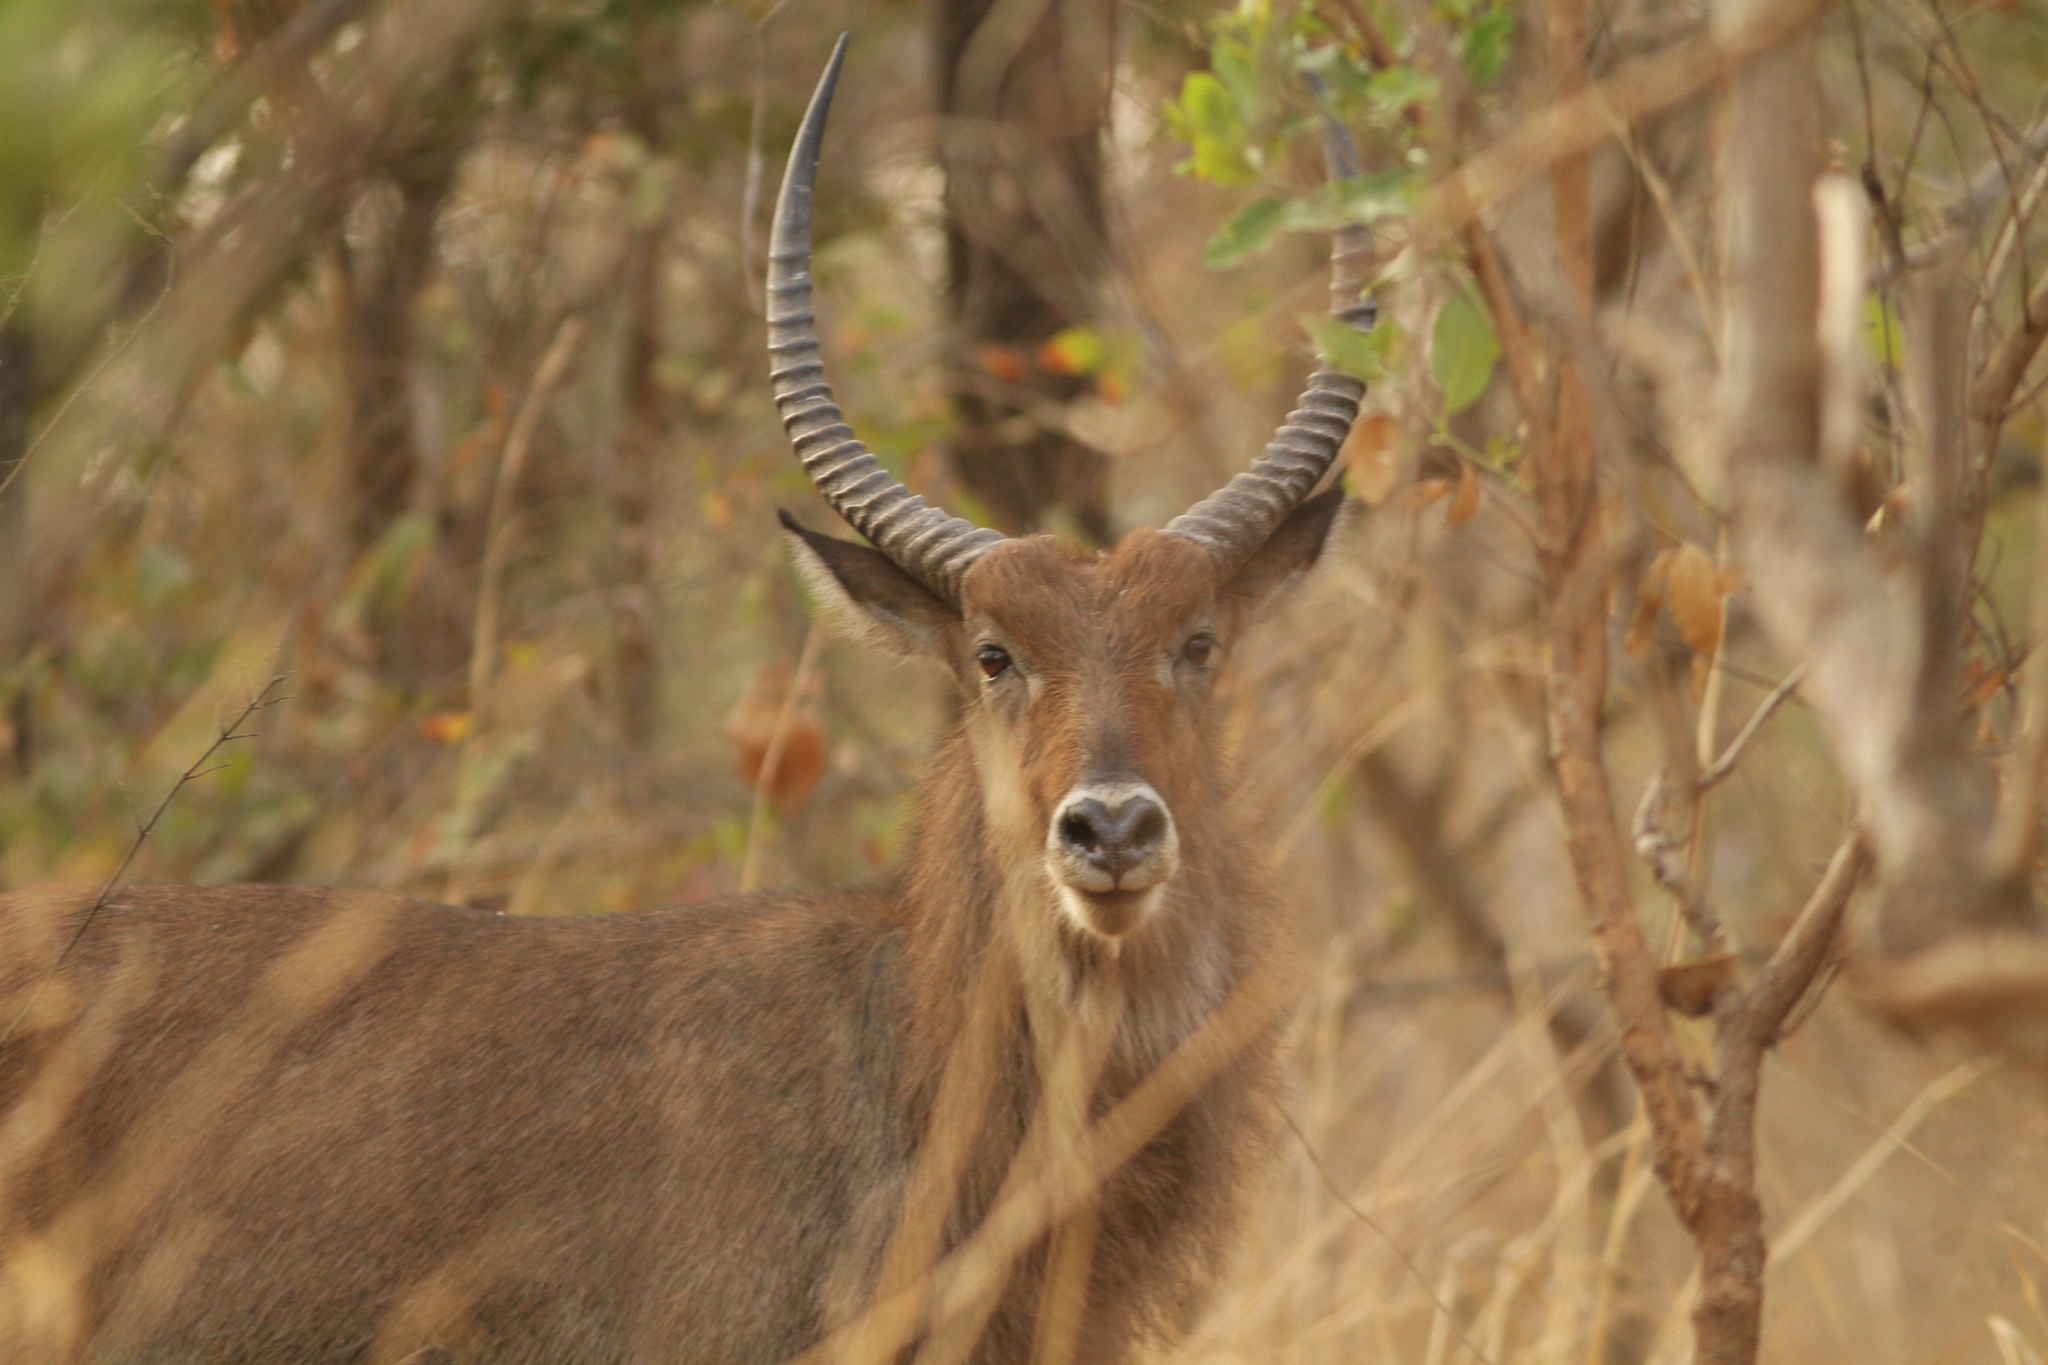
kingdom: Animalia
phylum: Chordata
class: Mammalia
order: Artiodactyla
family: Bovidae
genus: Kobus
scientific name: Kobus ellipsiprymnus
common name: Waterbuck
